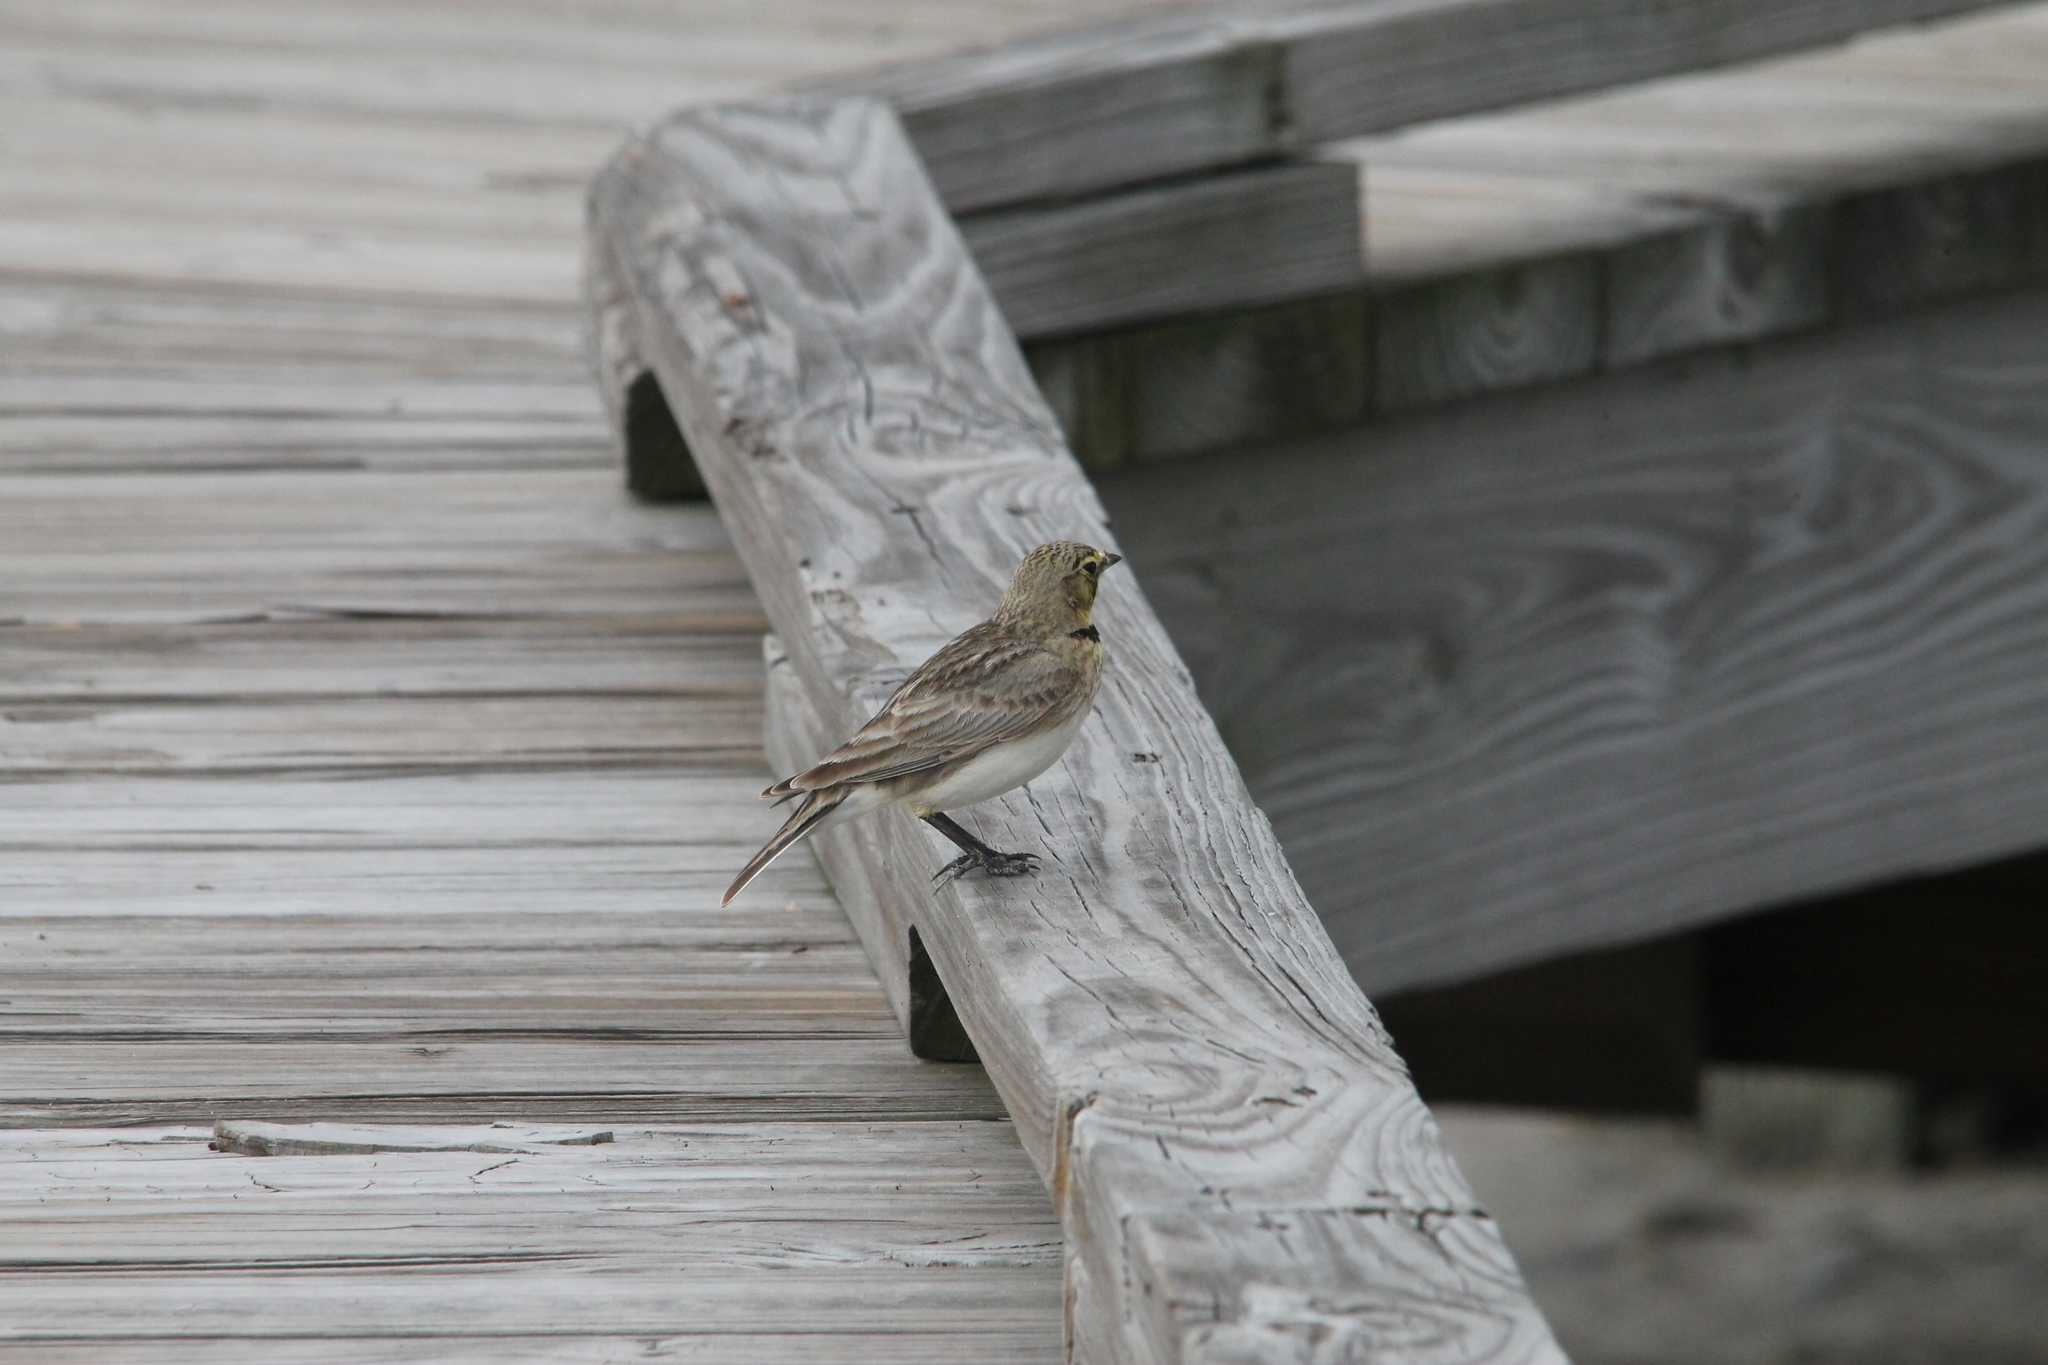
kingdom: Animalia
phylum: Chordata
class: Aves
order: Passeriformes
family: Alaudidae
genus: Eremophila
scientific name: Eremophila alpestris
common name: Horned lark
